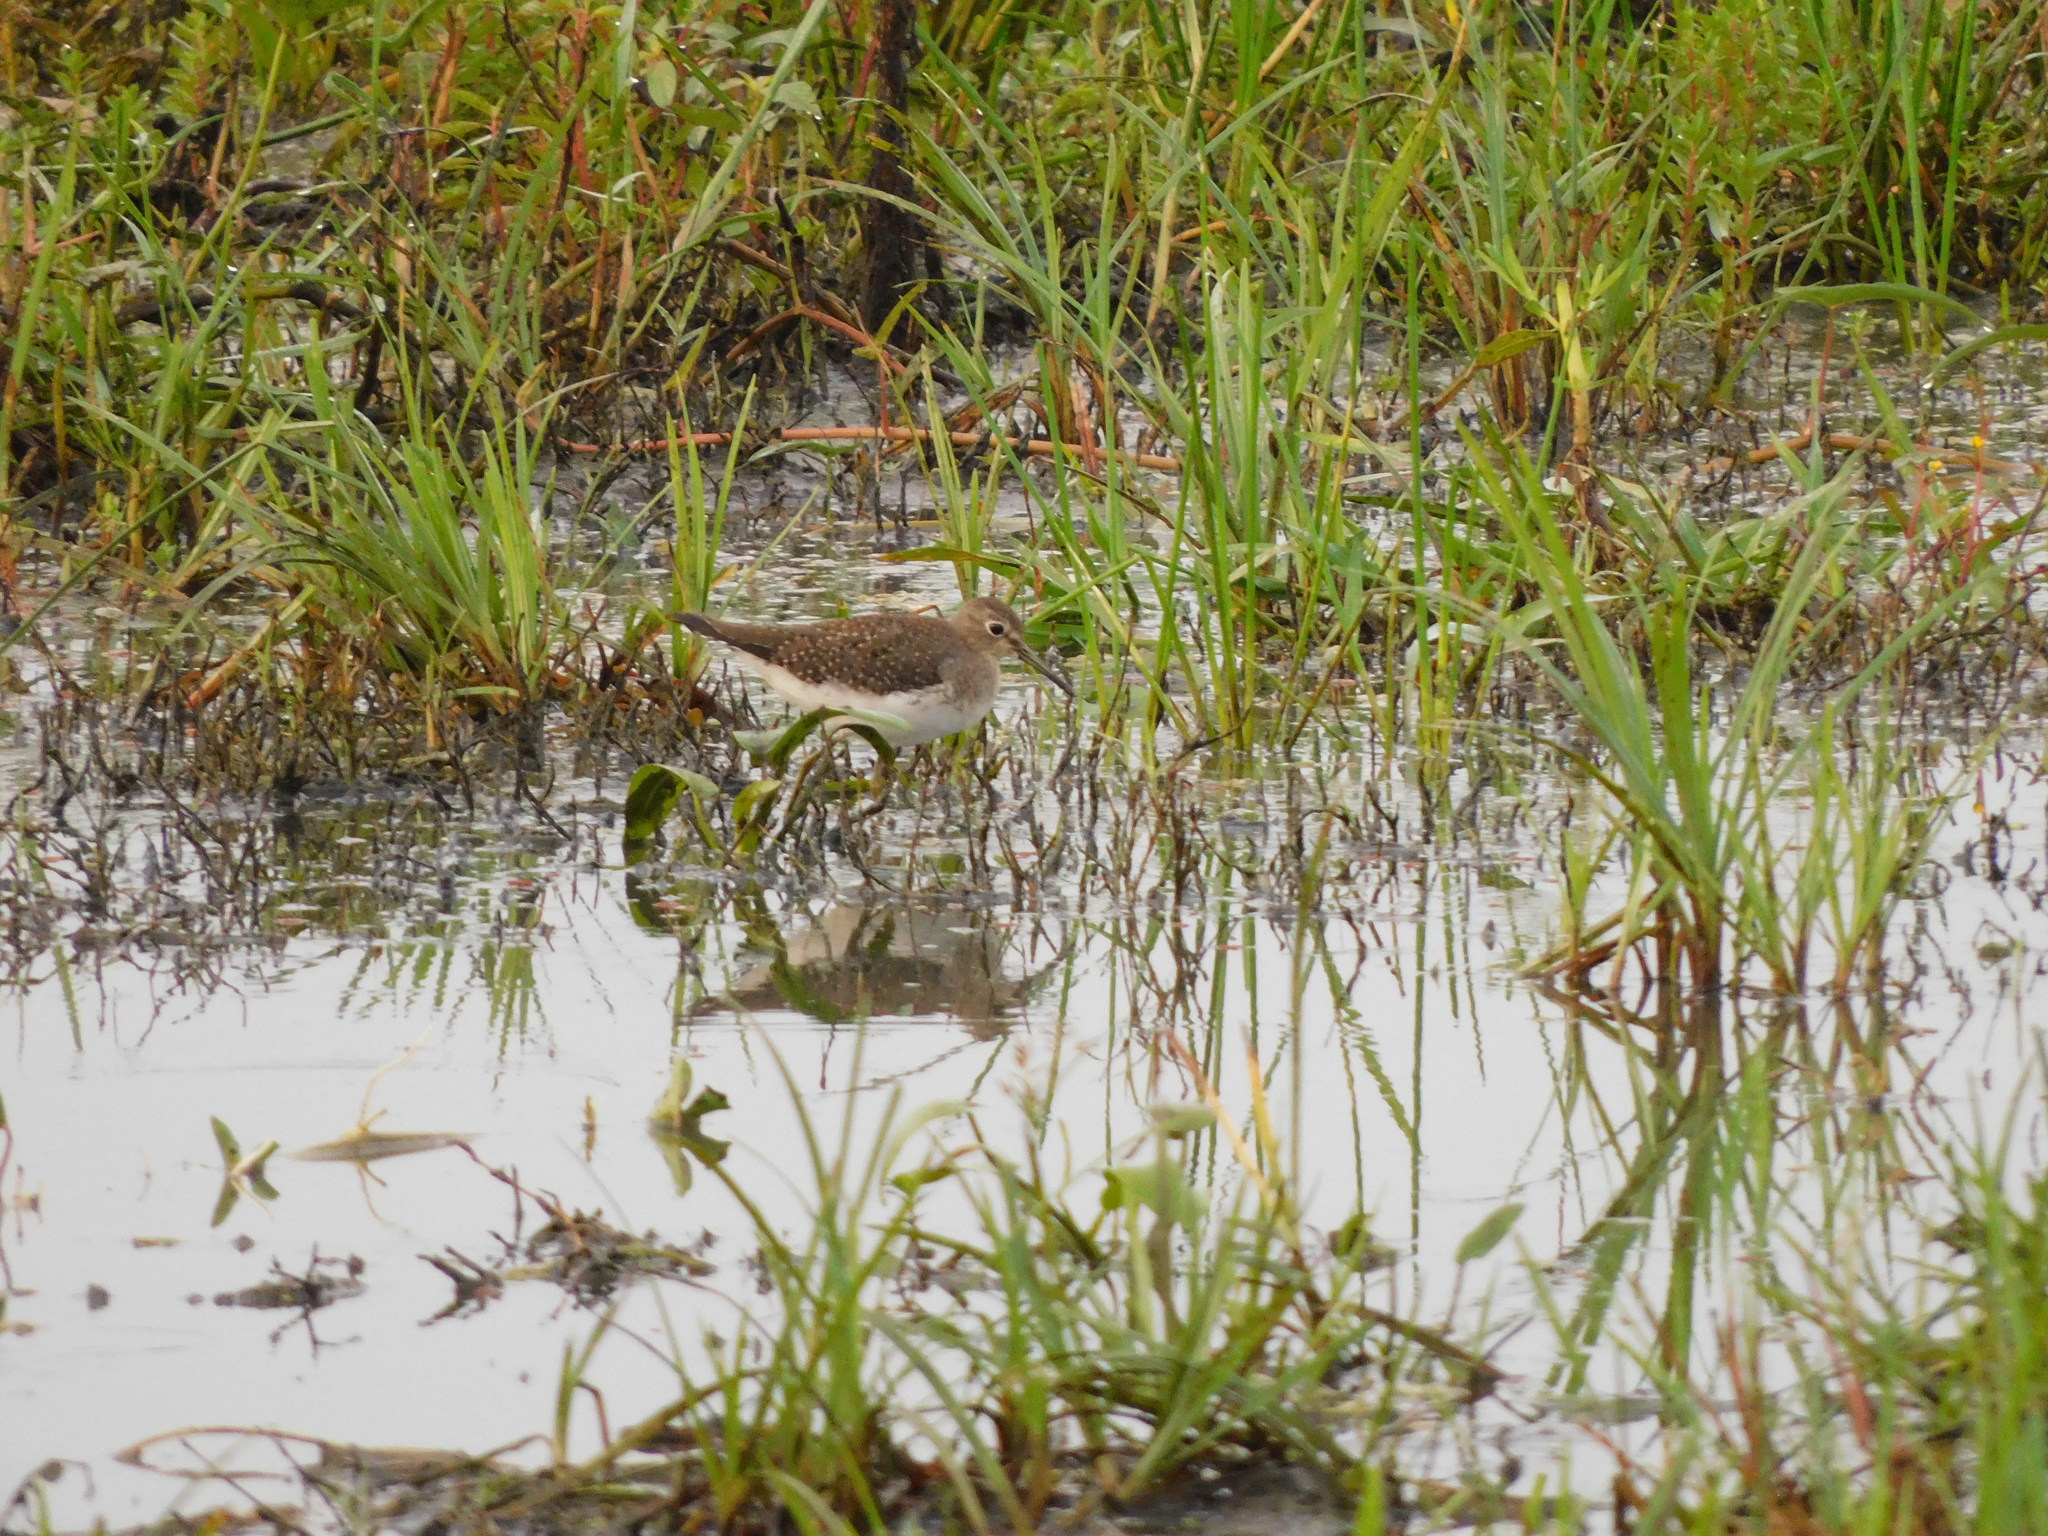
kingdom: Animalia
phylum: Chordata
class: Aves
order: Charadriiformes
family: Scolopacidae
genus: Tringa
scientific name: Tringa solitaria
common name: Solitary sandpiper
